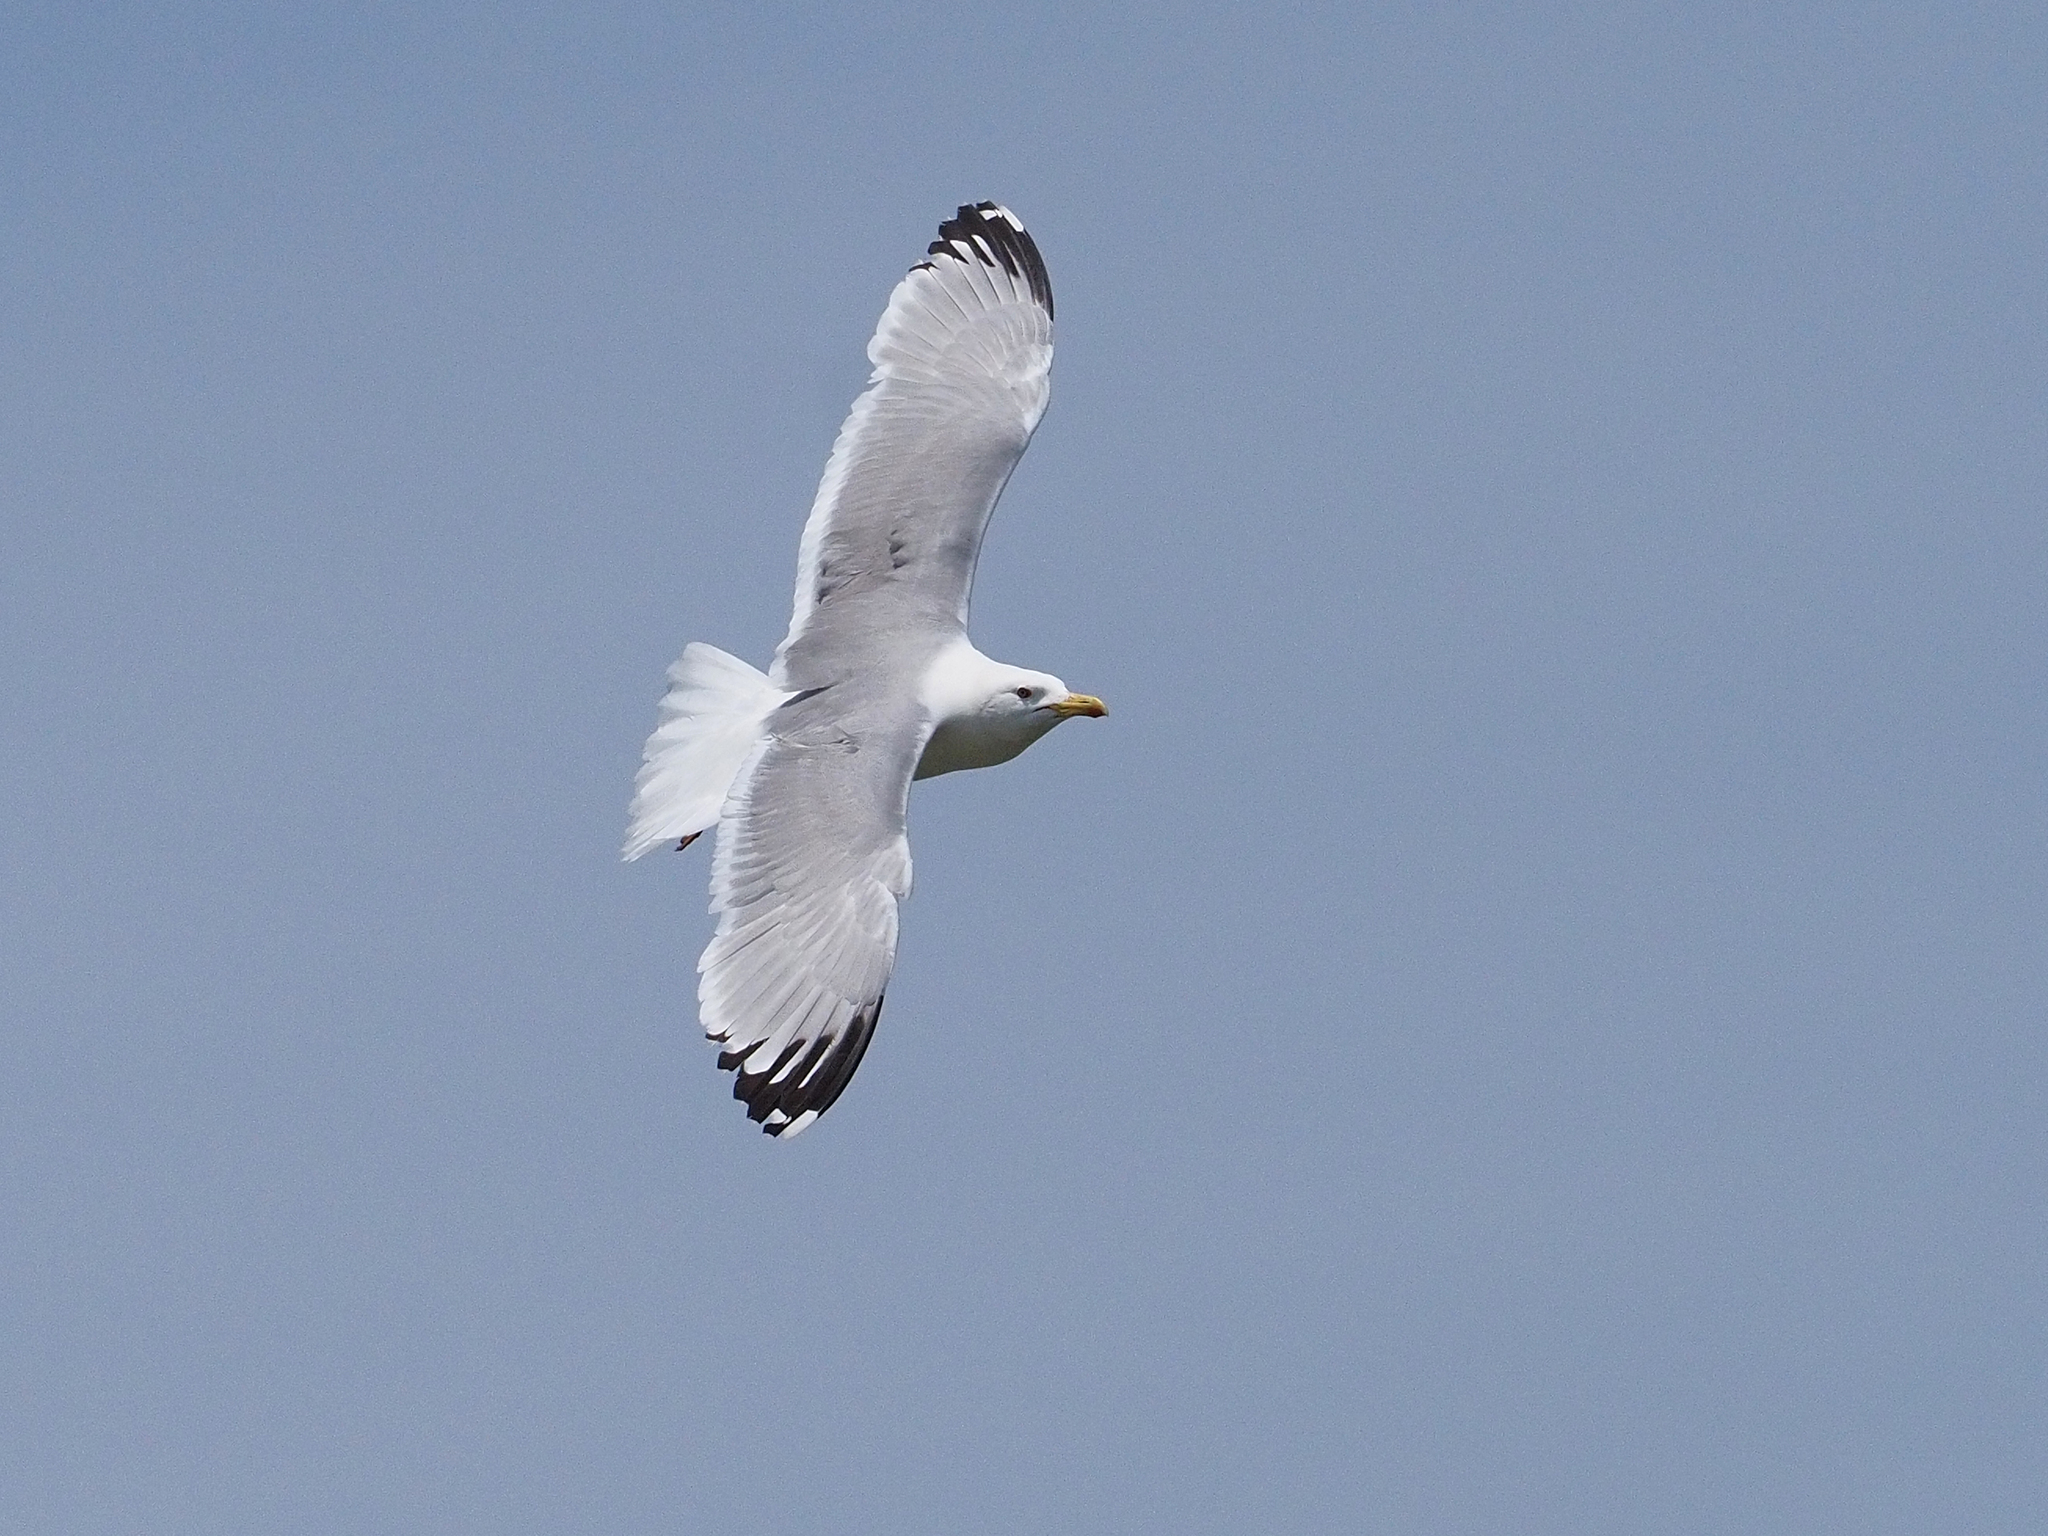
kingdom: Animalia
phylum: Chordata
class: Aves
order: Charadriiformes
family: Laridae
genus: Larus
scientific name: Larus cachinnans
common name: Caspian gull
